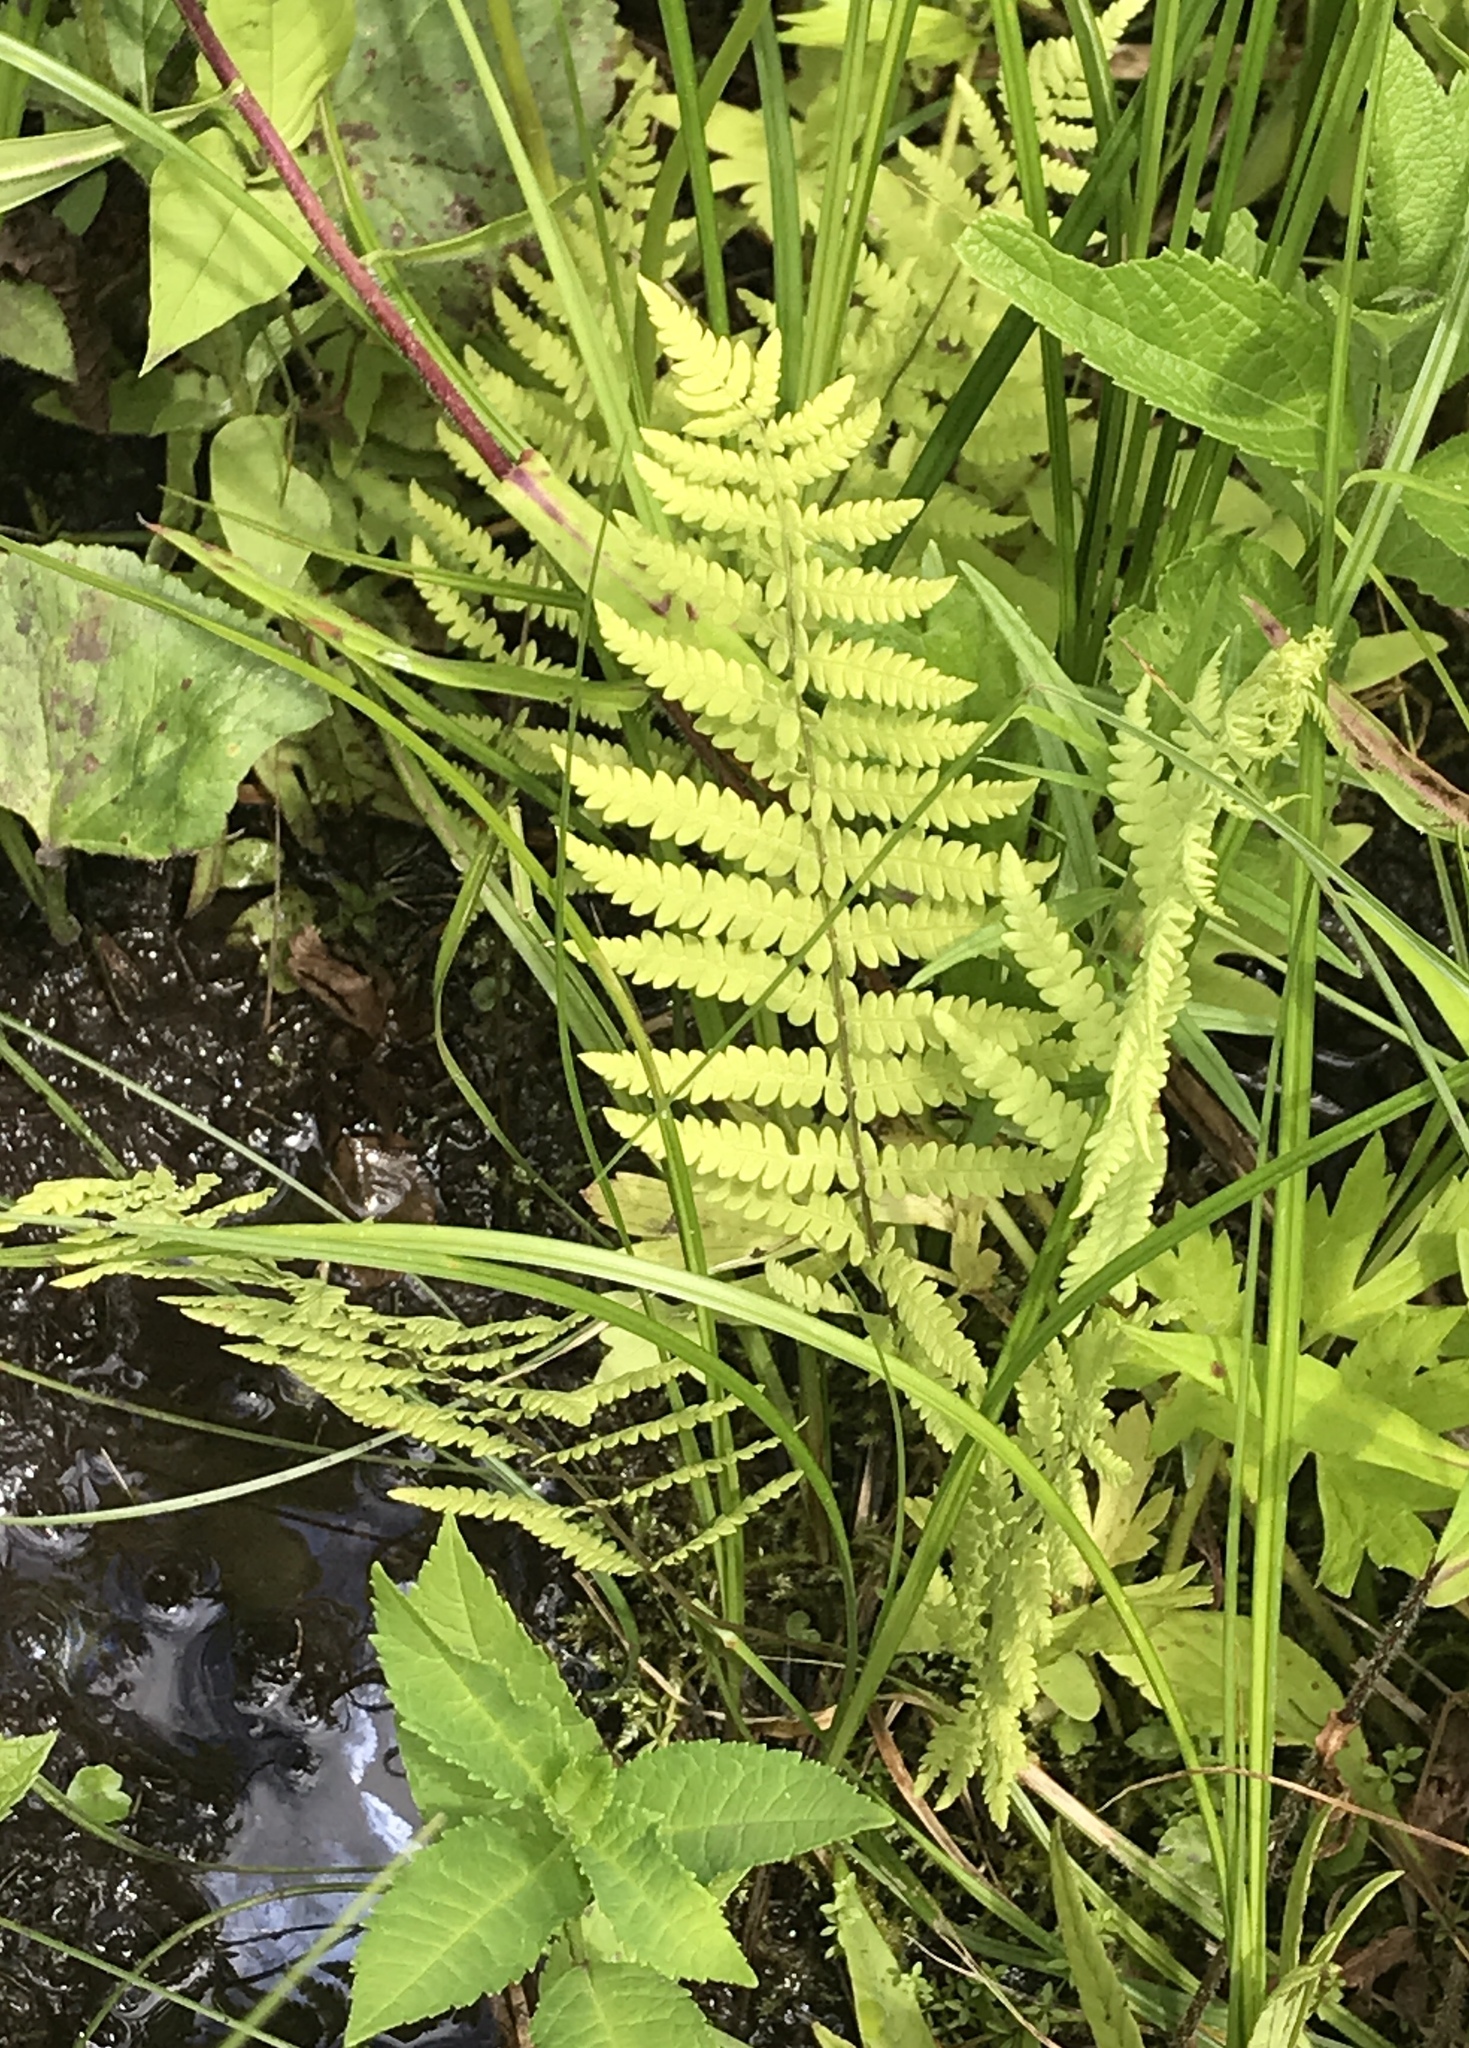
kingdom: Plantae
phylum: Tracheophyta
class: Polypodiopsida
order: Polypodiales
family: Thelypteridaceae
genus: Thelypteris
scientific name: Thelypteris palustris
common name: Marsh fern
